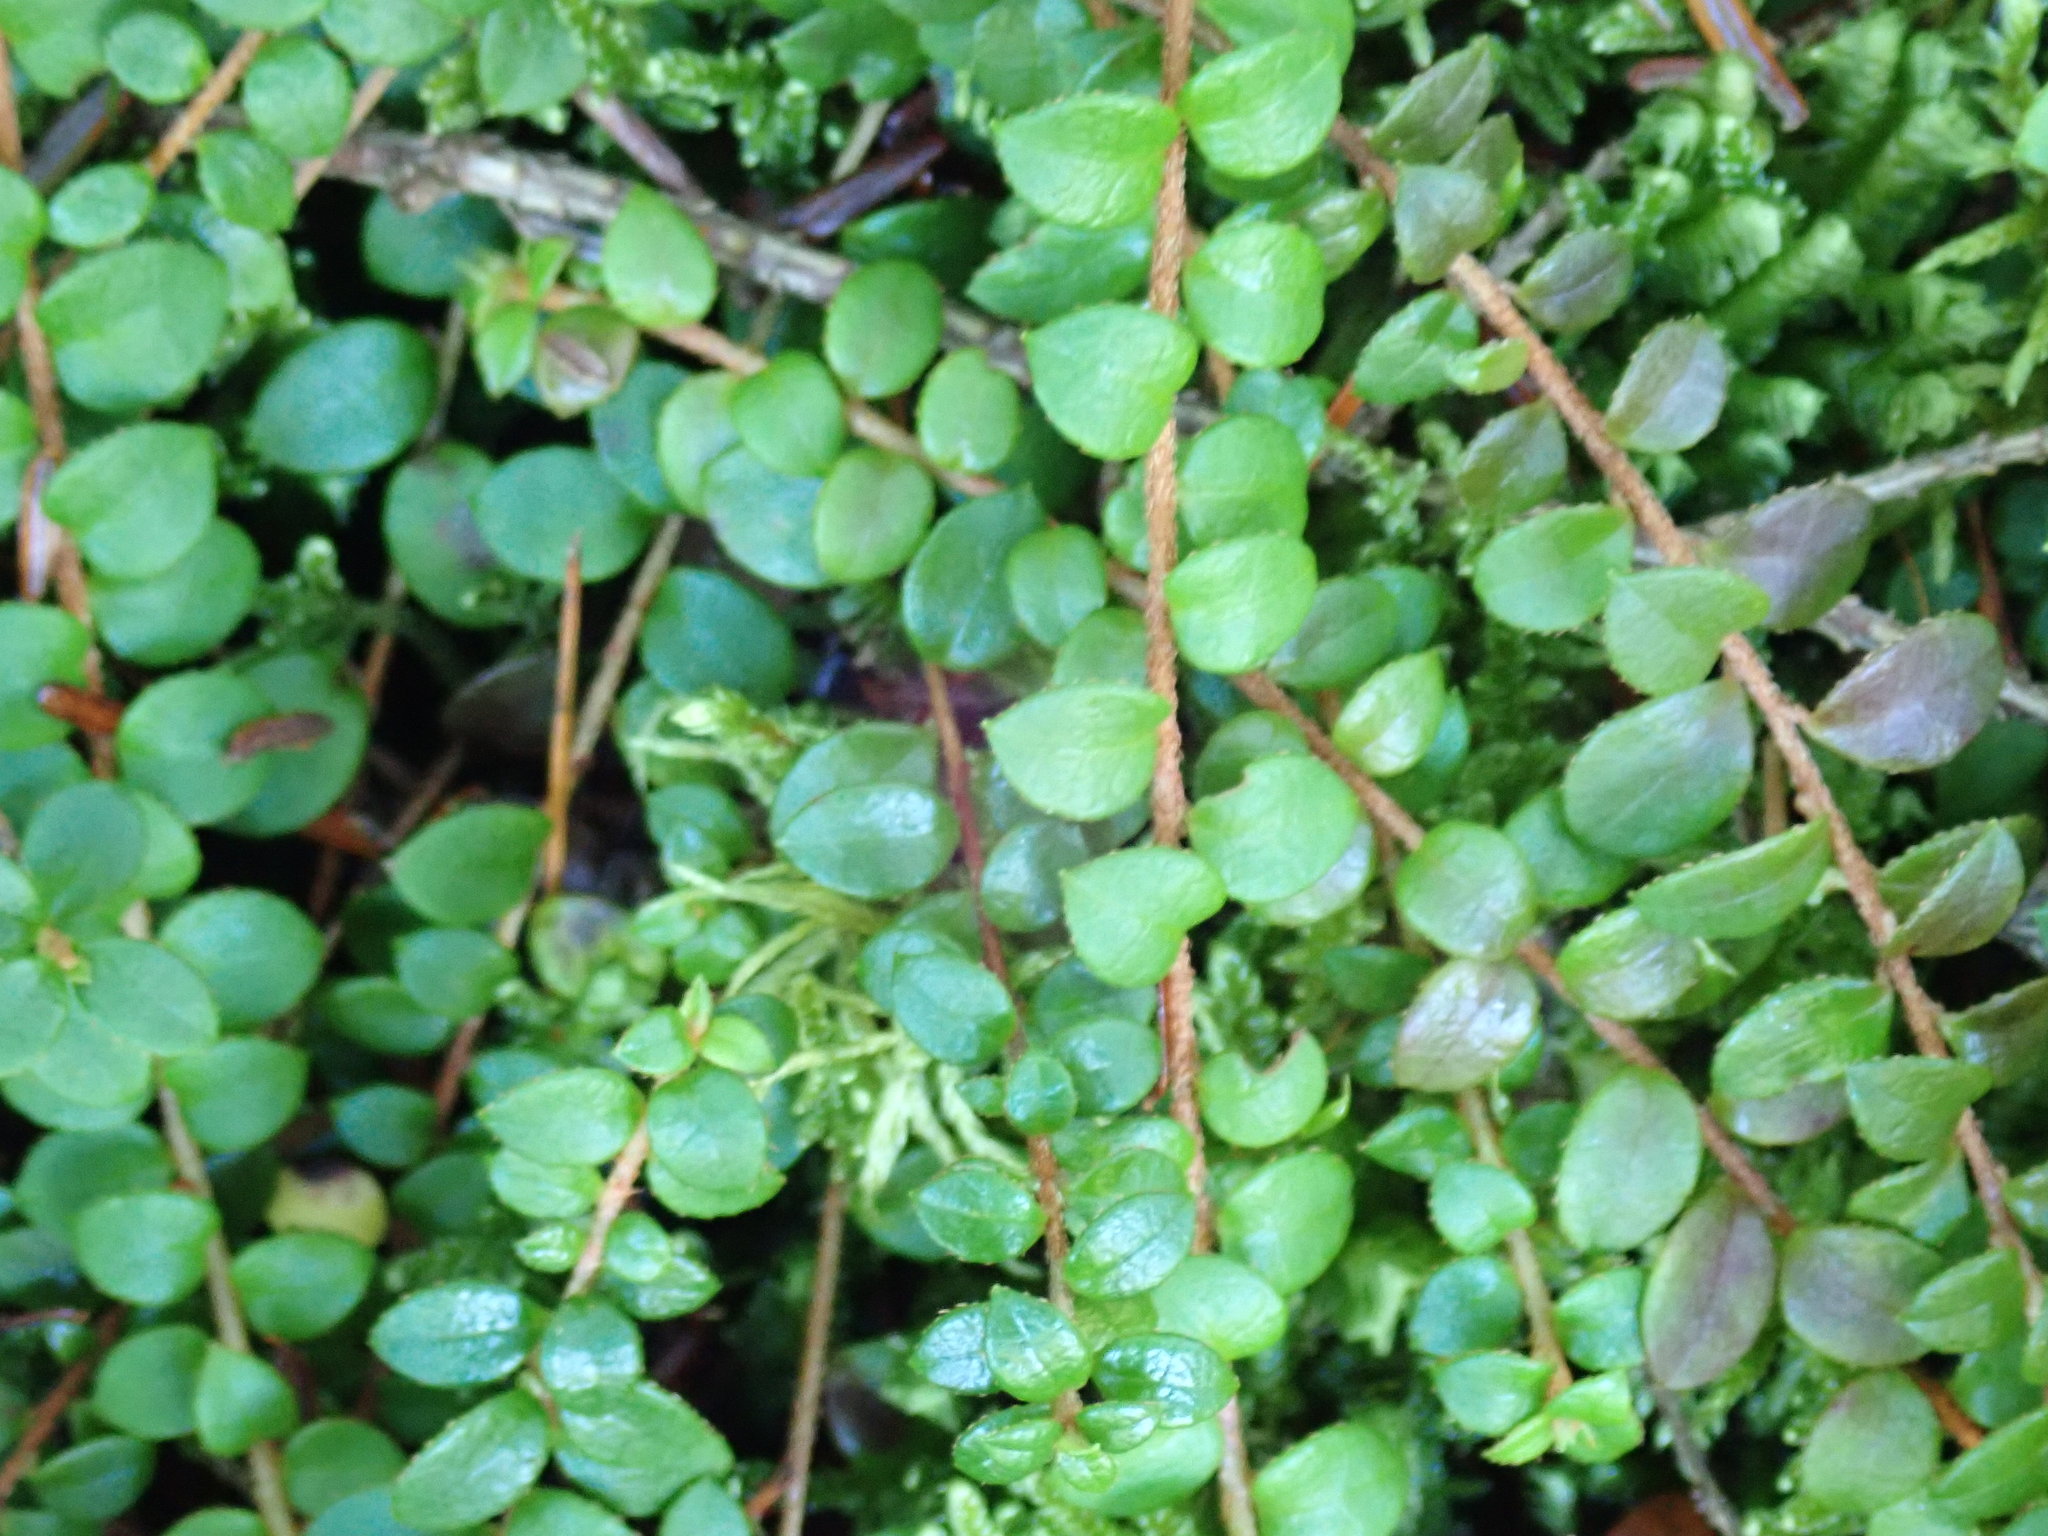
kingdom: Plantae
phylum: Tracheophyta
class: Magnoliopsida
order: Ericales
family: Ericaceae
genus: Gaultheria
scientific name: Gaultheria hispidula
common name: Cancer wintergreen
